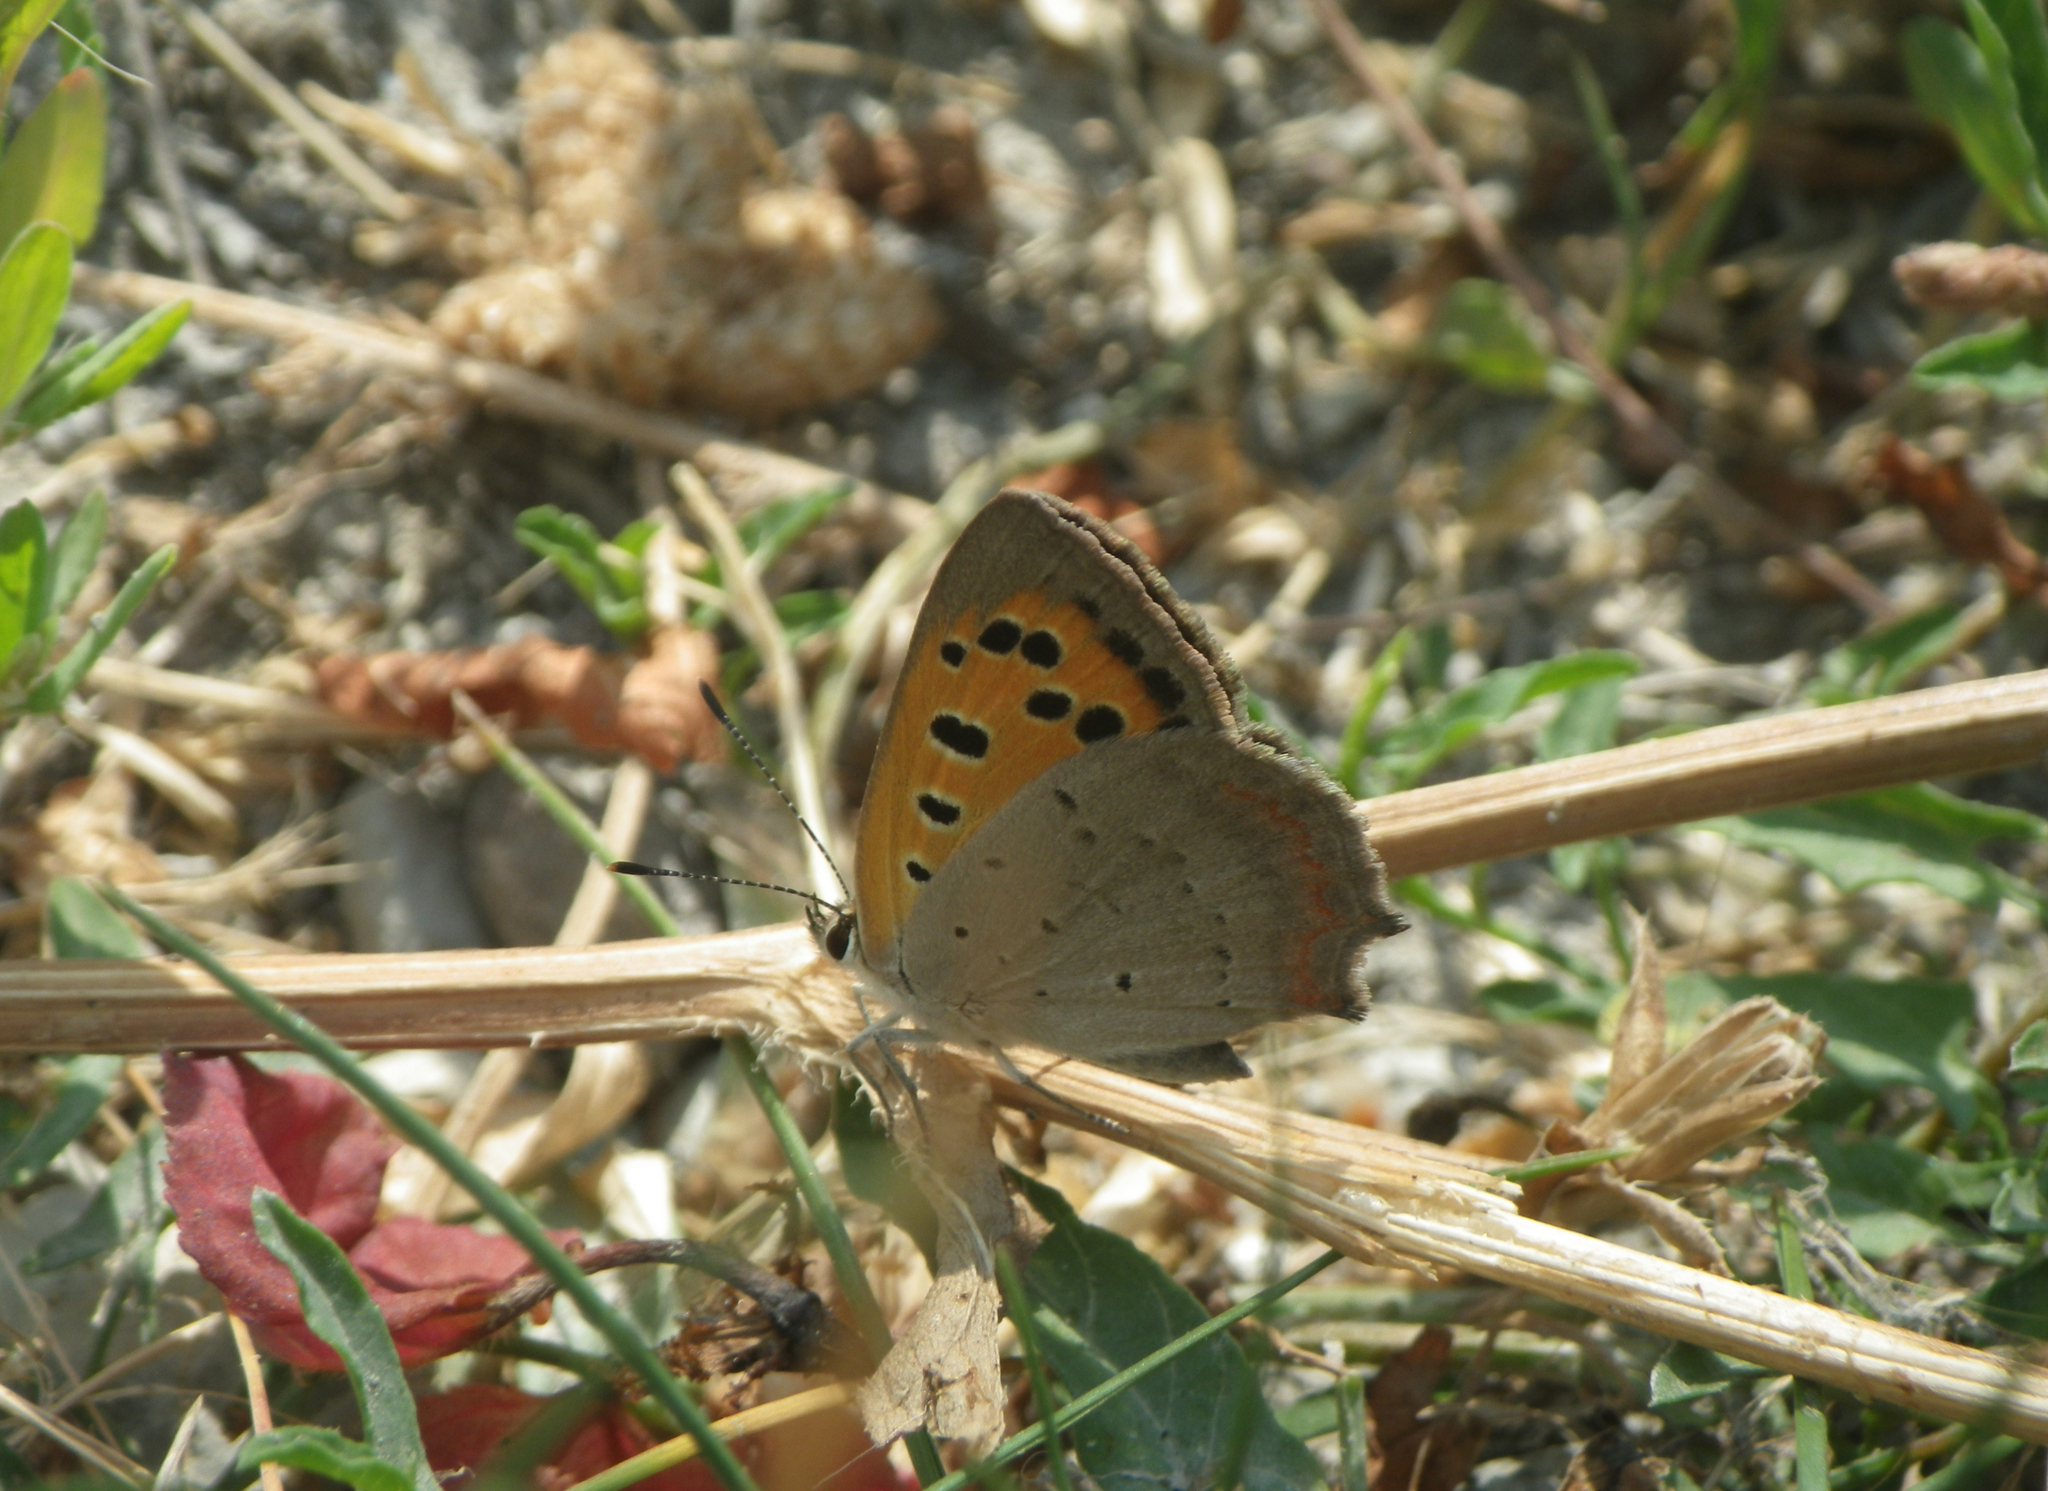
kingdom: Animalia
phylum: Arthropoda
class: Insecta
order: Lepidoptera
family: Lycaenidae
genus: Lycaena
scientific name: Lycaena phlaeas
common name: Small copper
